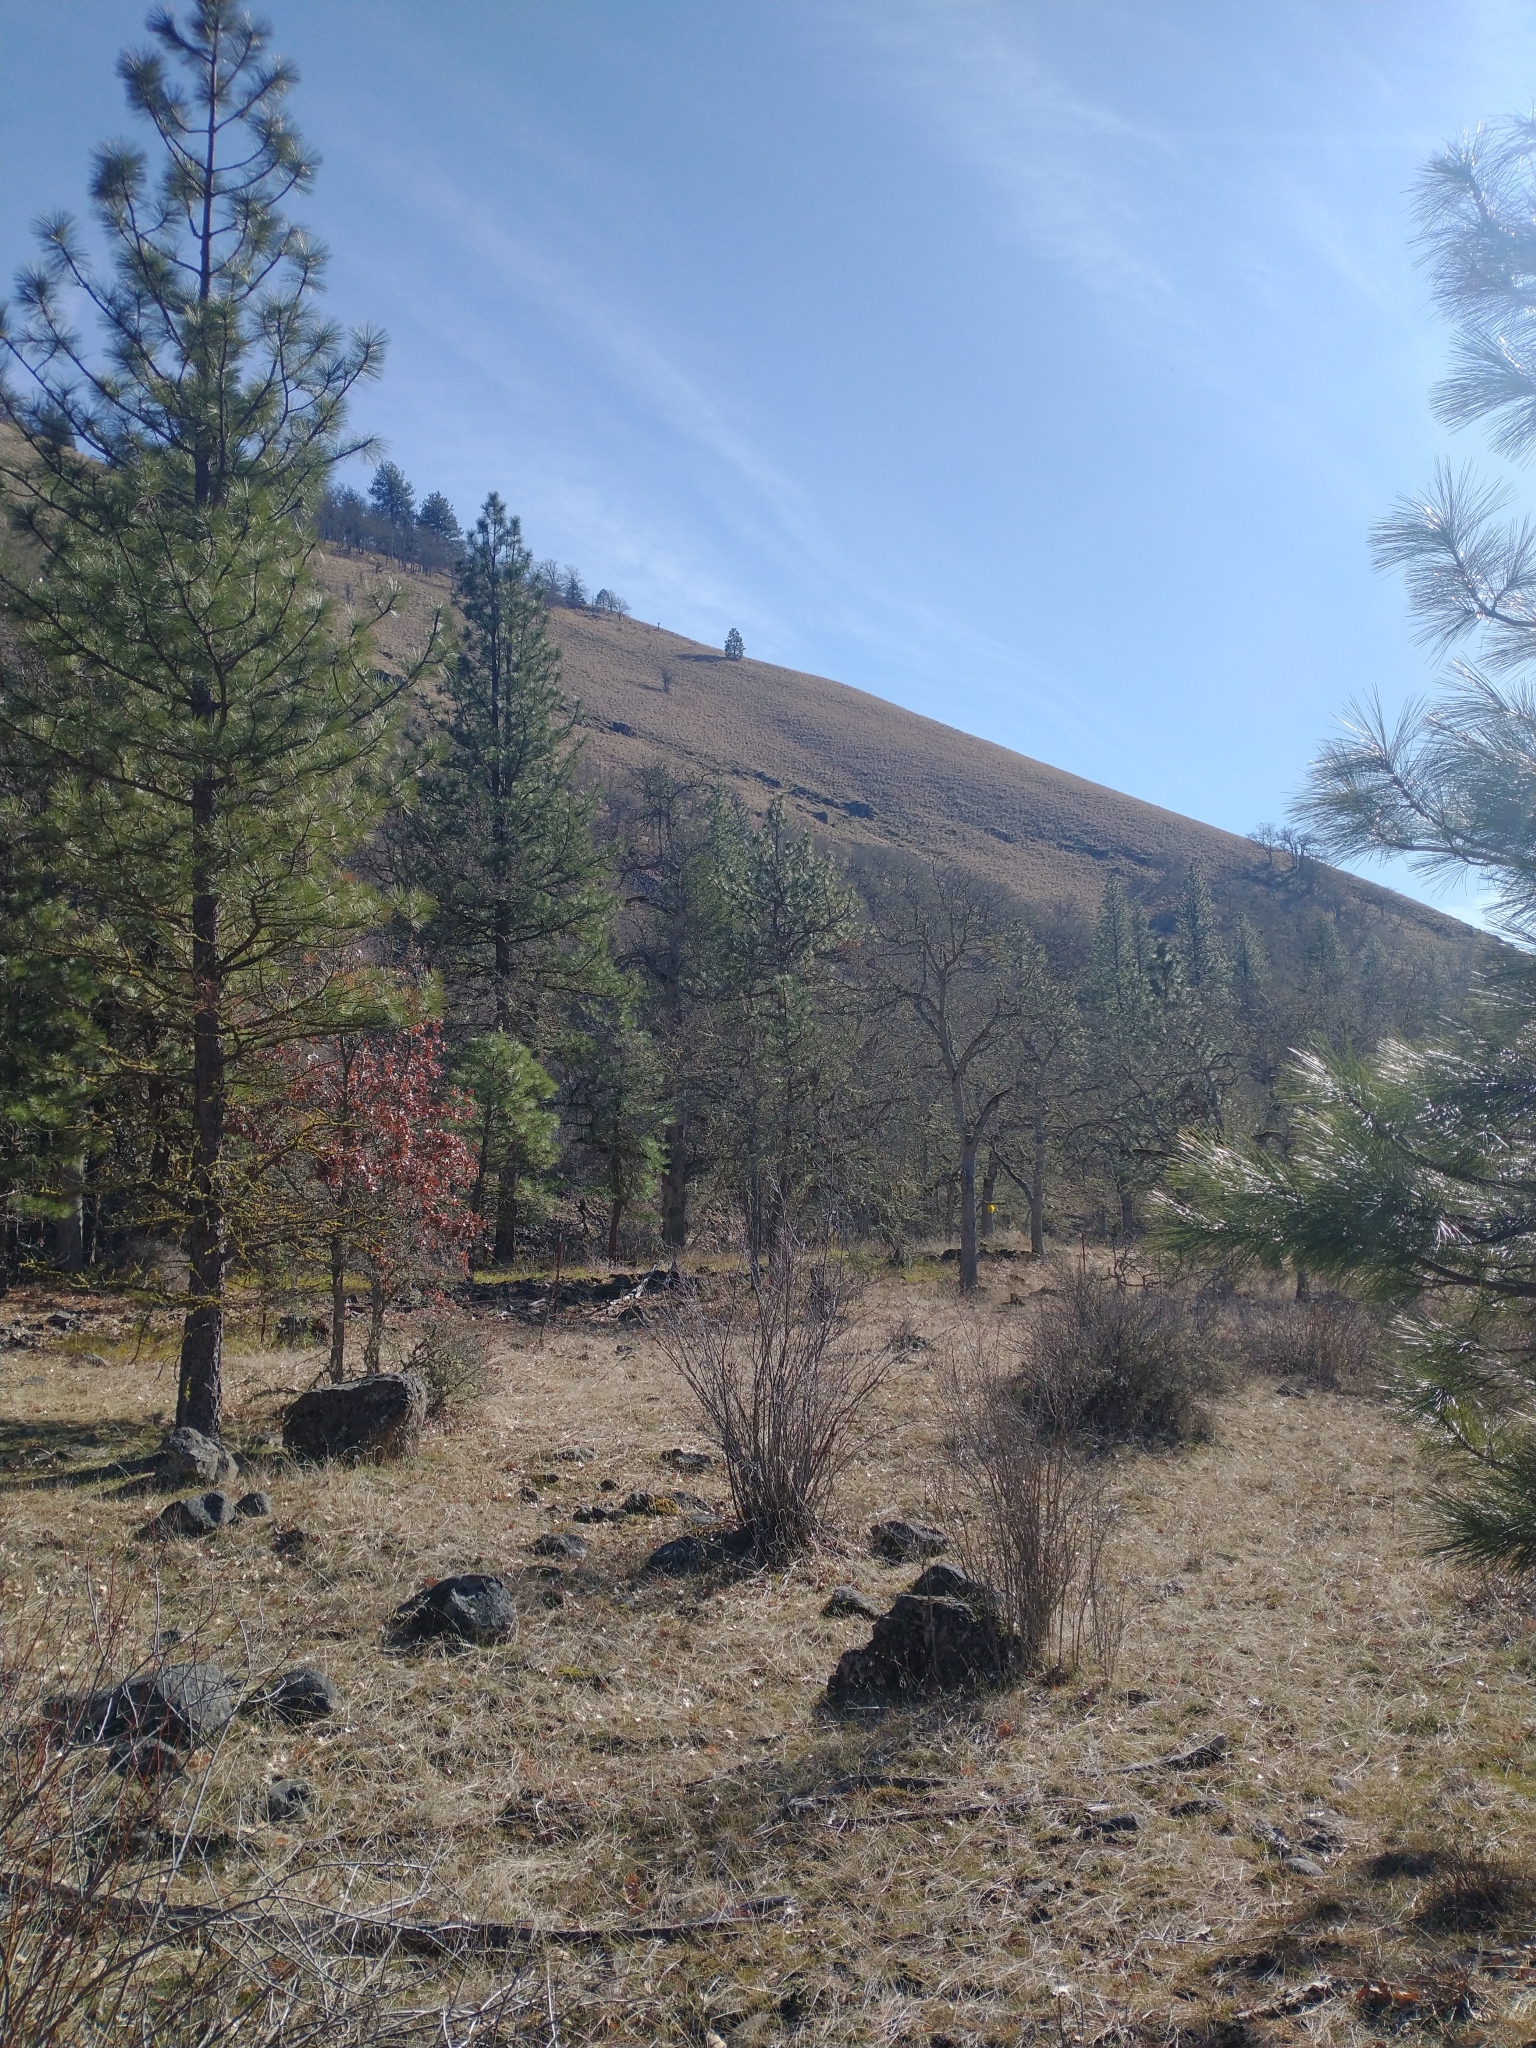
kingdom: Plantae
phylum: Tracheophyta
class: Pinopsida
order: Pinales
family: Pinaceae
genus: Pinus
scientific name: Pinus ponderosa
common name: Western yellow-pine
